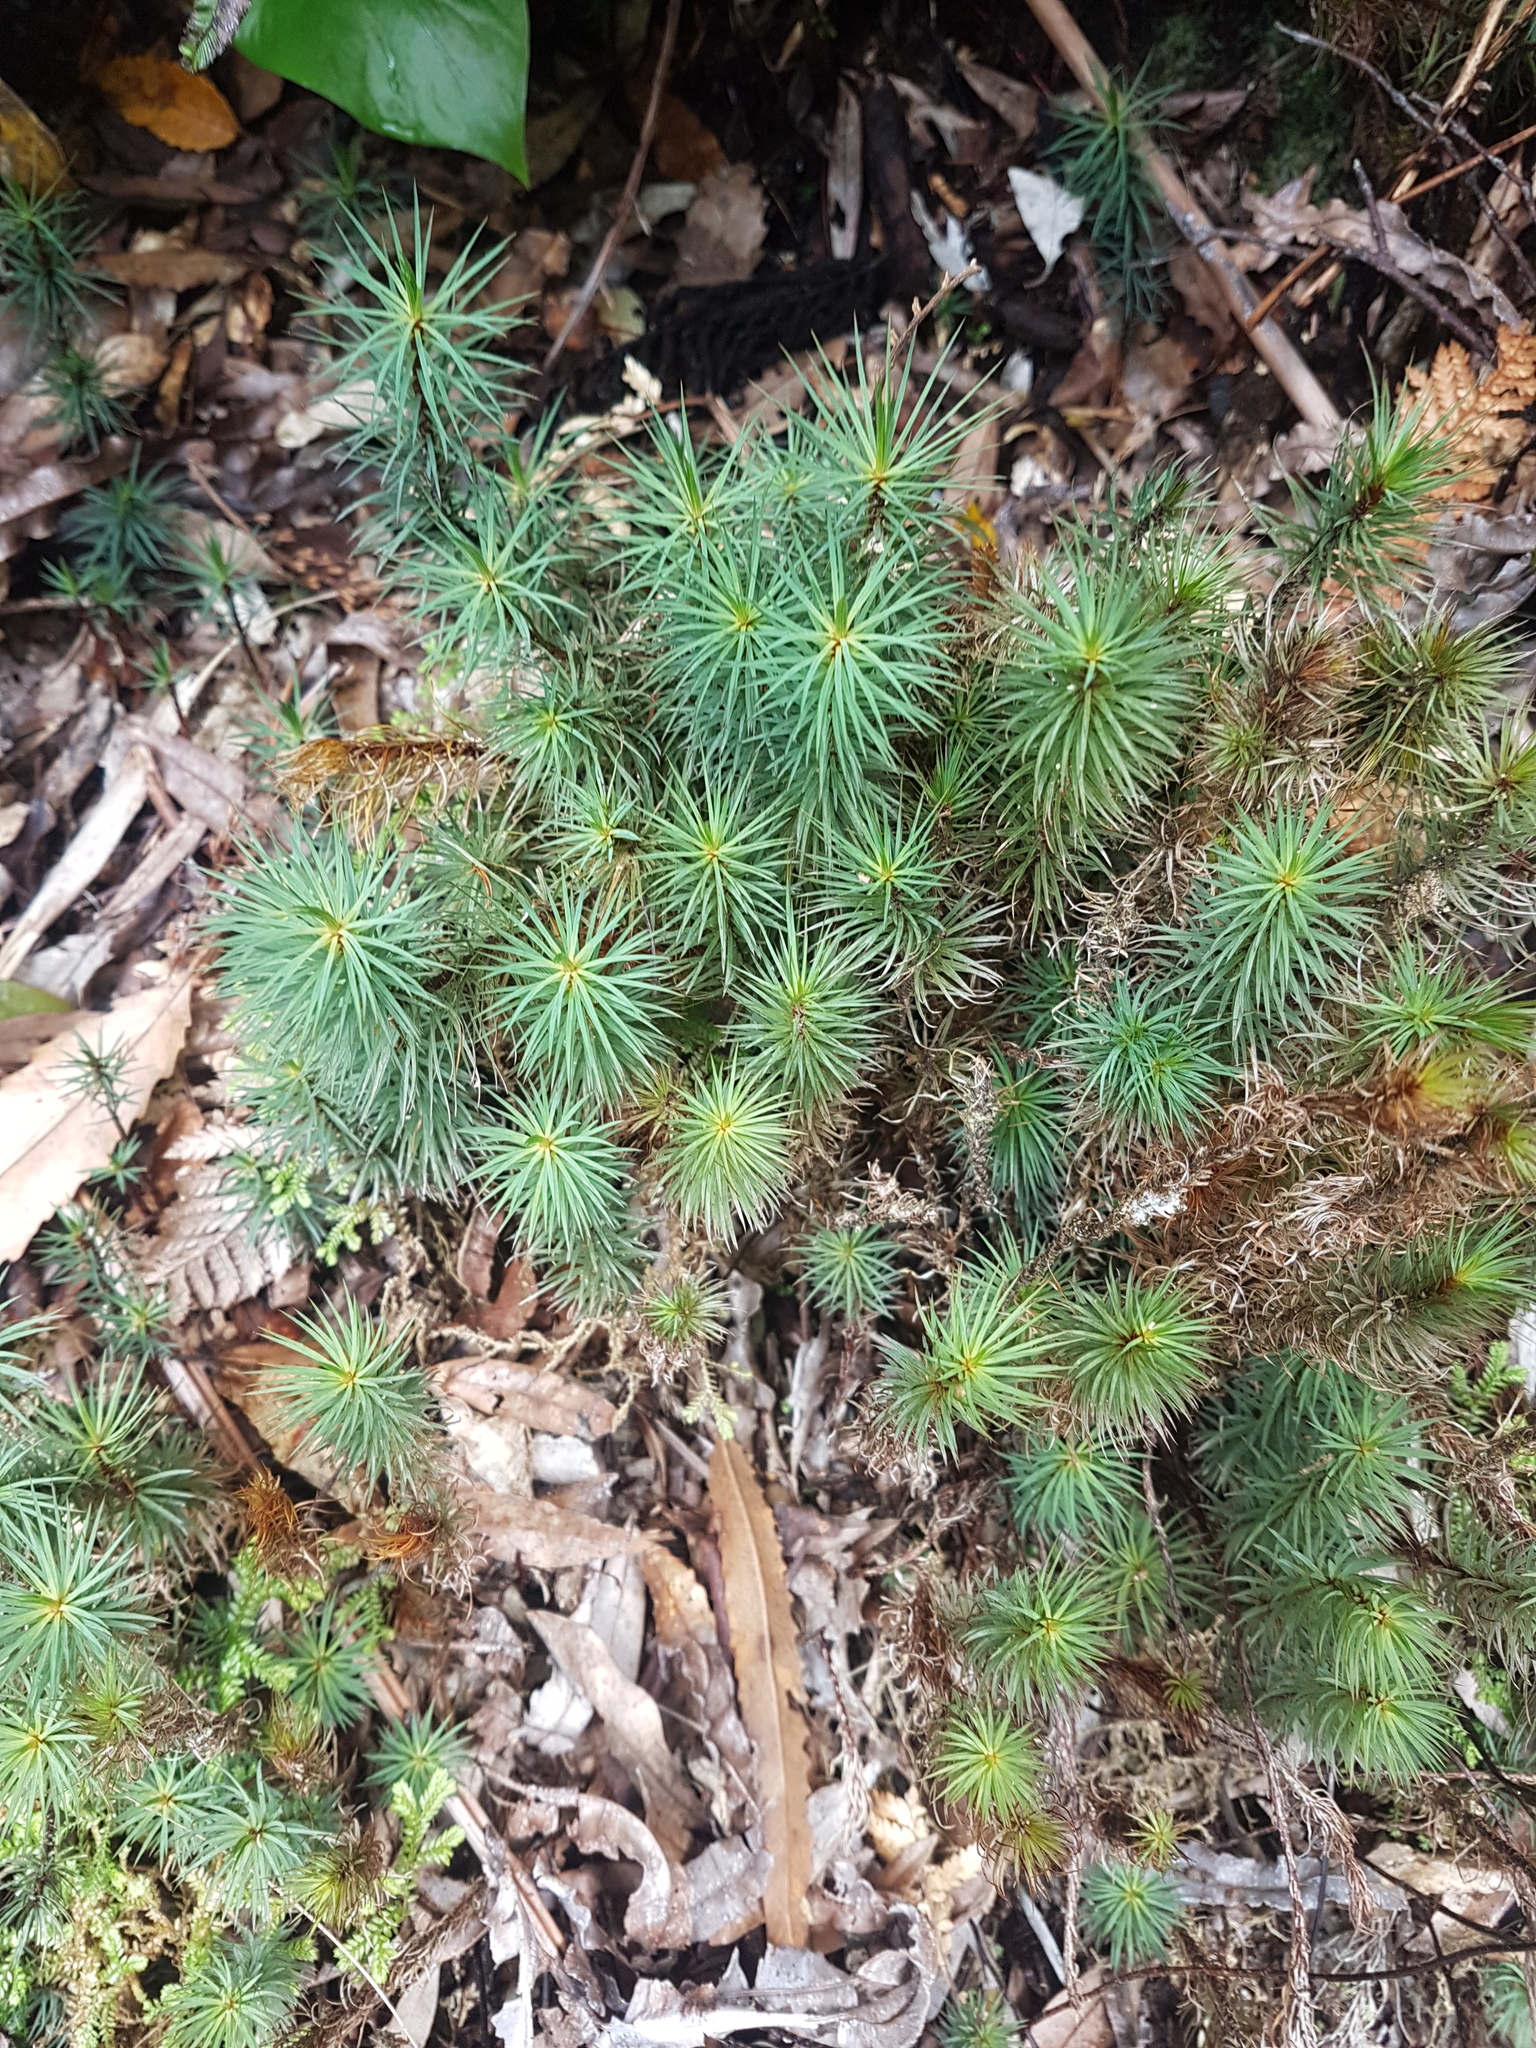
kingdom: Plantae
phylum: Bryophyta
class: Polytrichopsida
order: Polytrichales
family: Polytrichaceae
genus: Dawsonia
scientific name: Dawsonia superba
